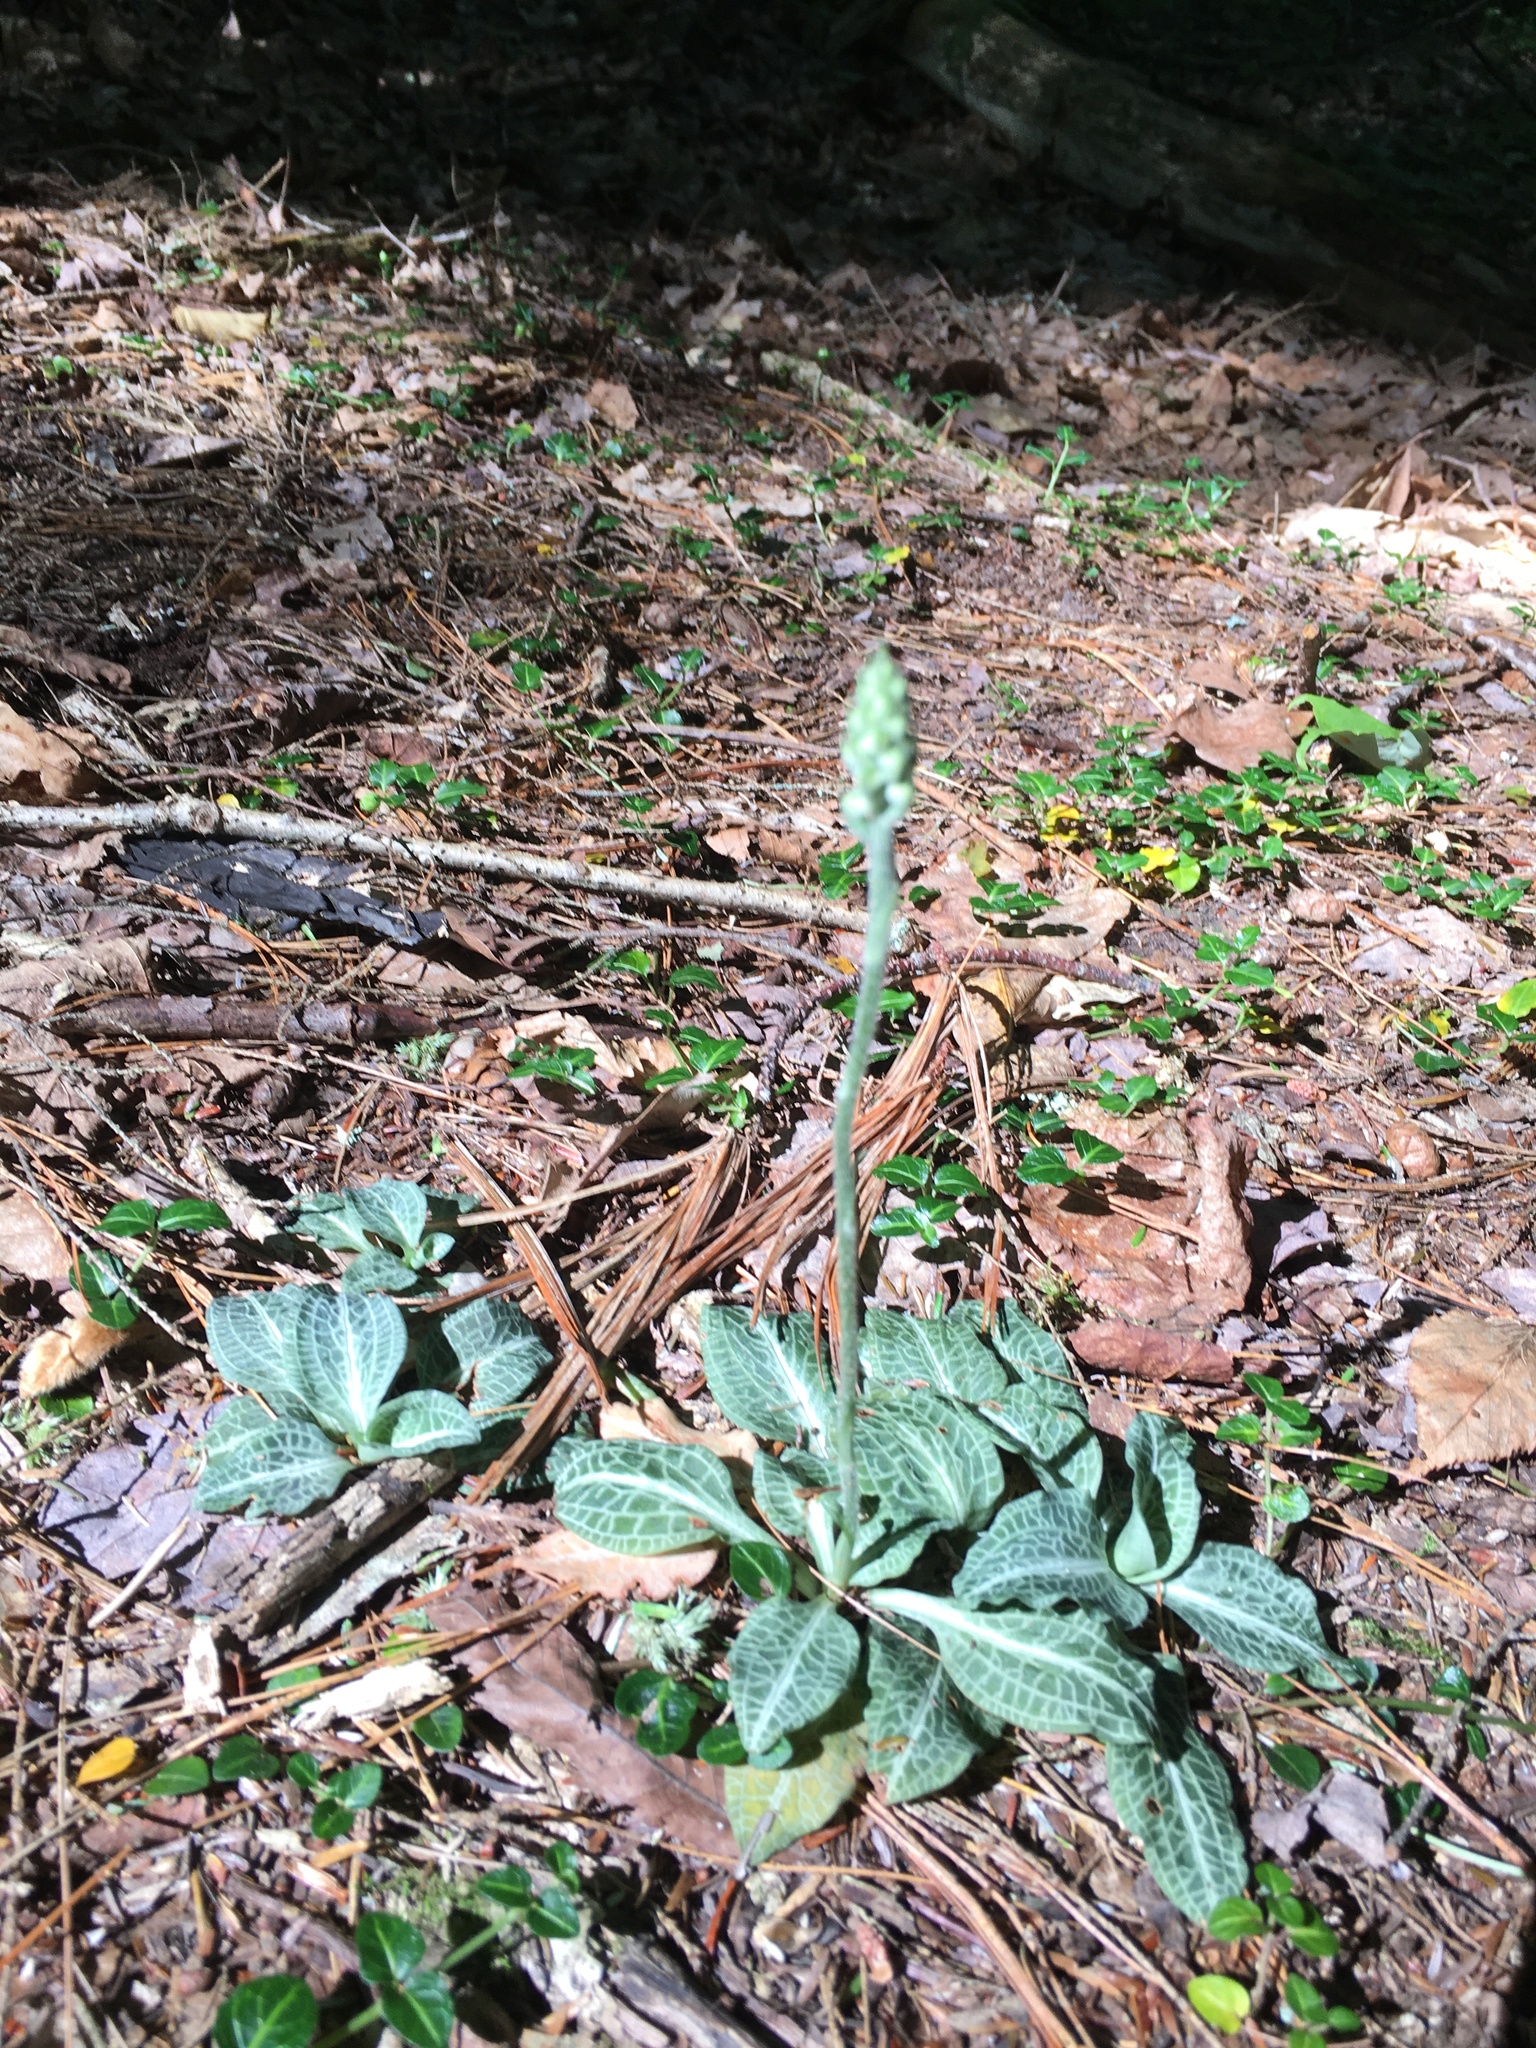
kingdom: Plantae
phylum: Tracheophyta
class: Liliopsida
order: Asparagales
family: Orchidaceae
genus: Goodyera
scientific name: Goodyera pubescens
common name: Downy rattlesnake-plantain
